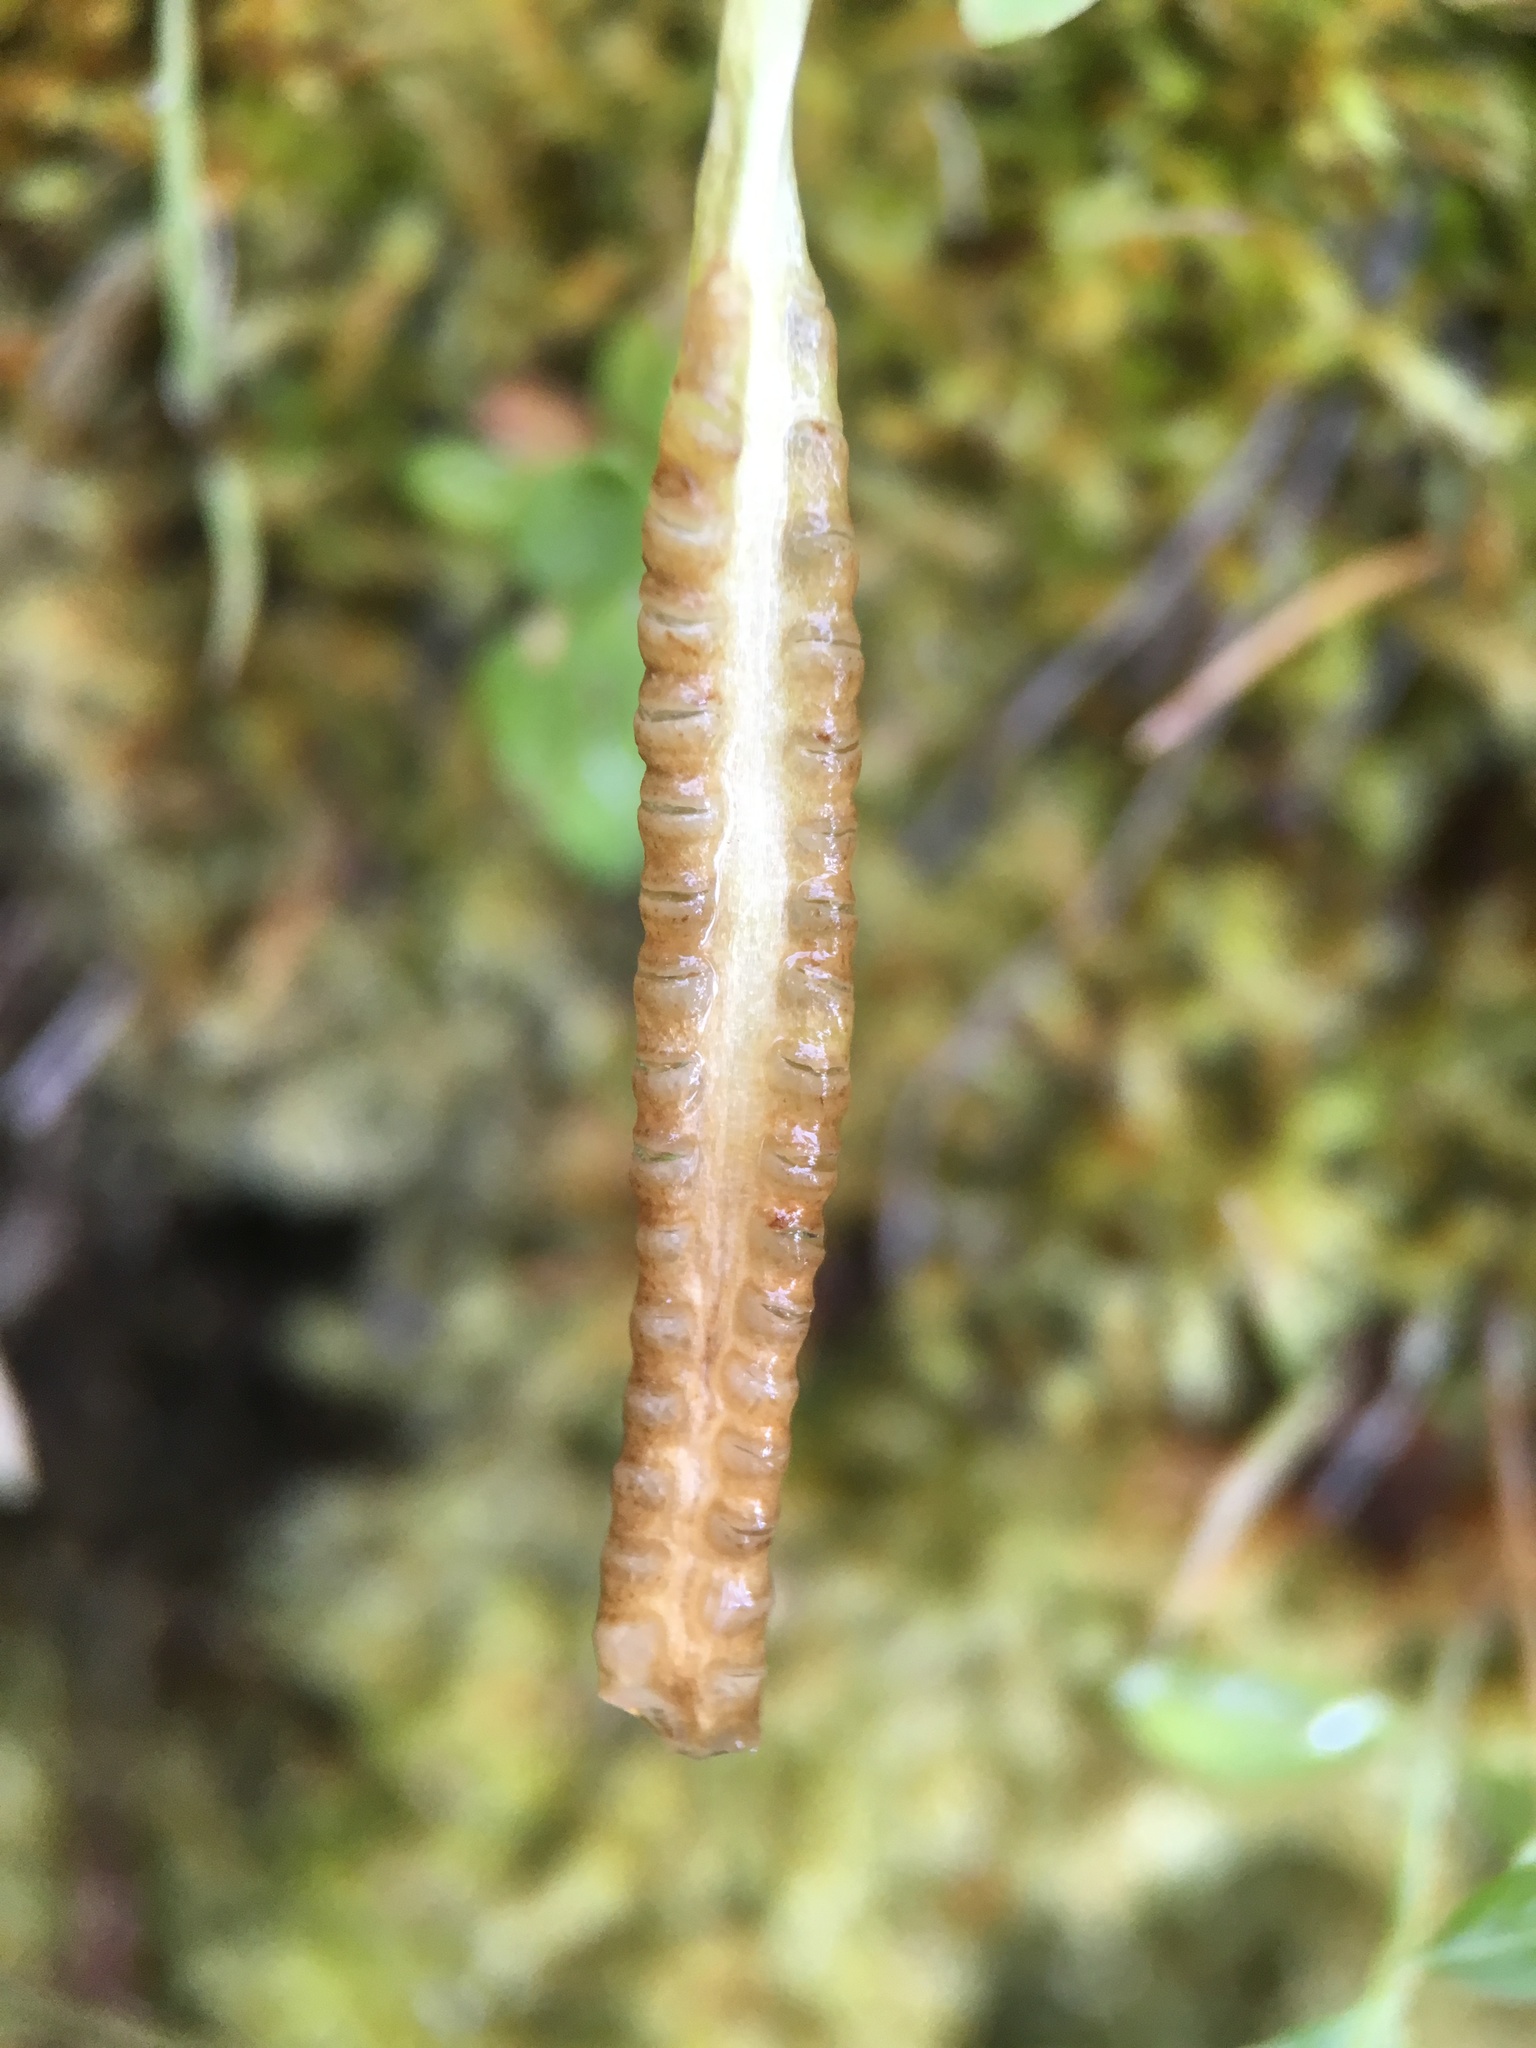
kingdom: Plantae
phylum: Tracheophyta
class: Polypodiopsida
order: Ophioglossales
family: Ophioglossaceae
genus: Ophioglossum
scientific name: Ophioglossum pusillum
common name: Northern adder's-tongue
